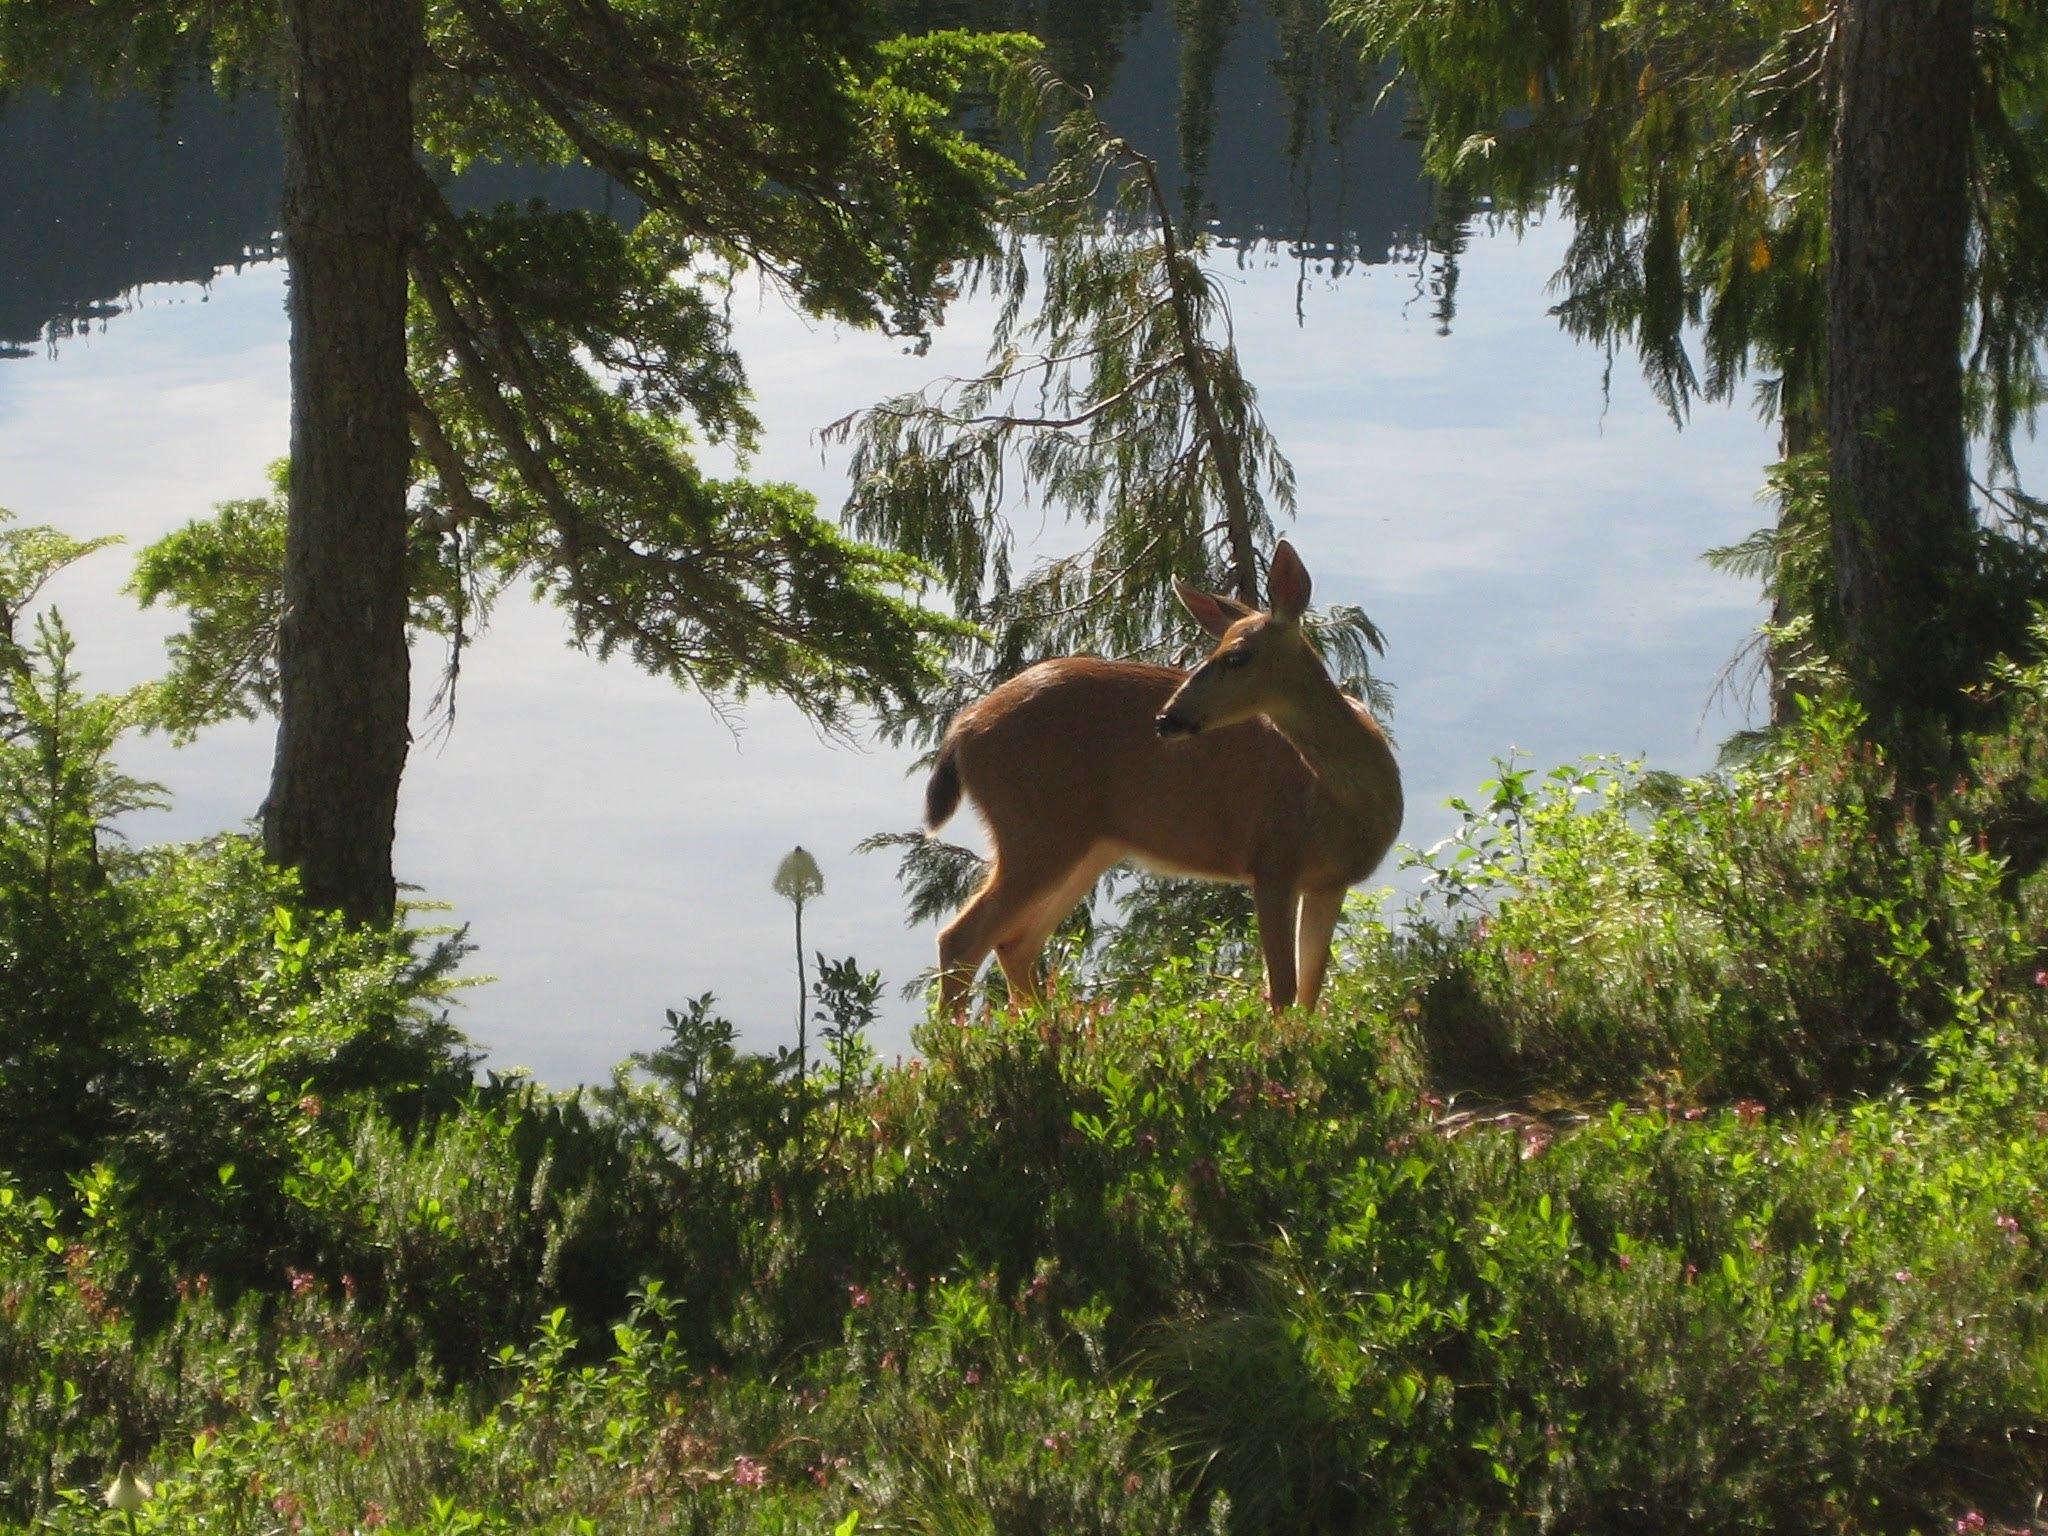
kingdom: Animalia
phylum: Chordata
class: Mammalia
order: Artiodactyla
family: Cervidae
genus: Odocoileus
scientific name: Odocoileus hemionus
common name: Mule deer
